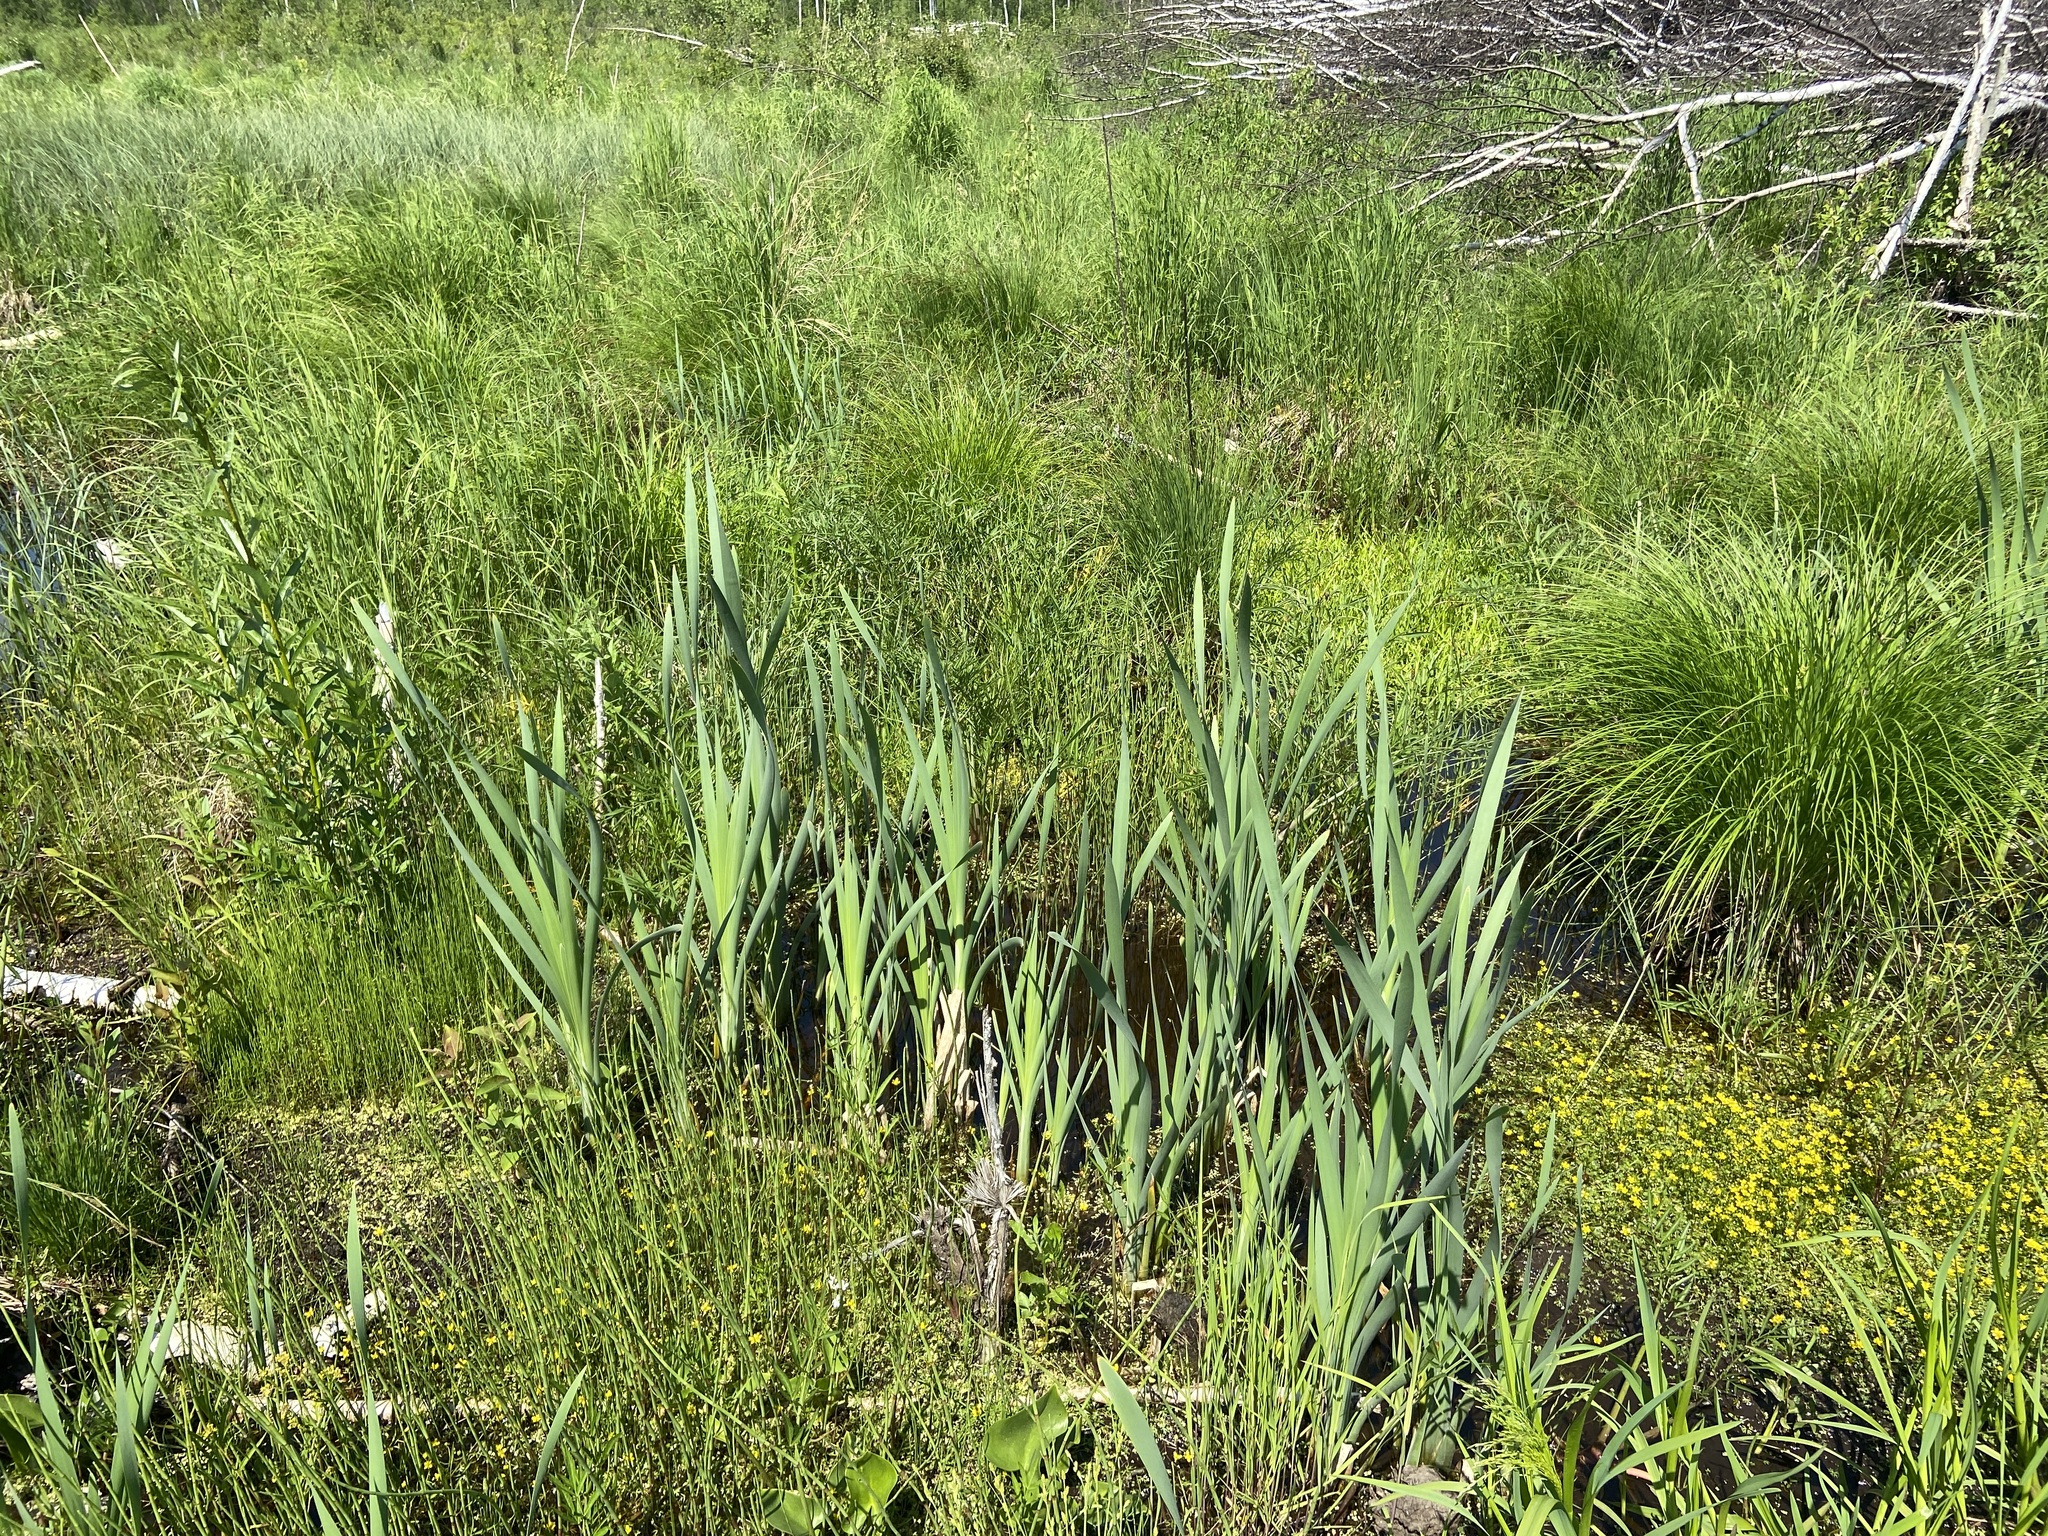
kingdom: Plantae
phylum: Tracheophyta
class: Liliopsida
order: Poales
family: Typhaceae
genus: Typha
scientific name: Typha latifolia
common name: Broadleaf cattail
